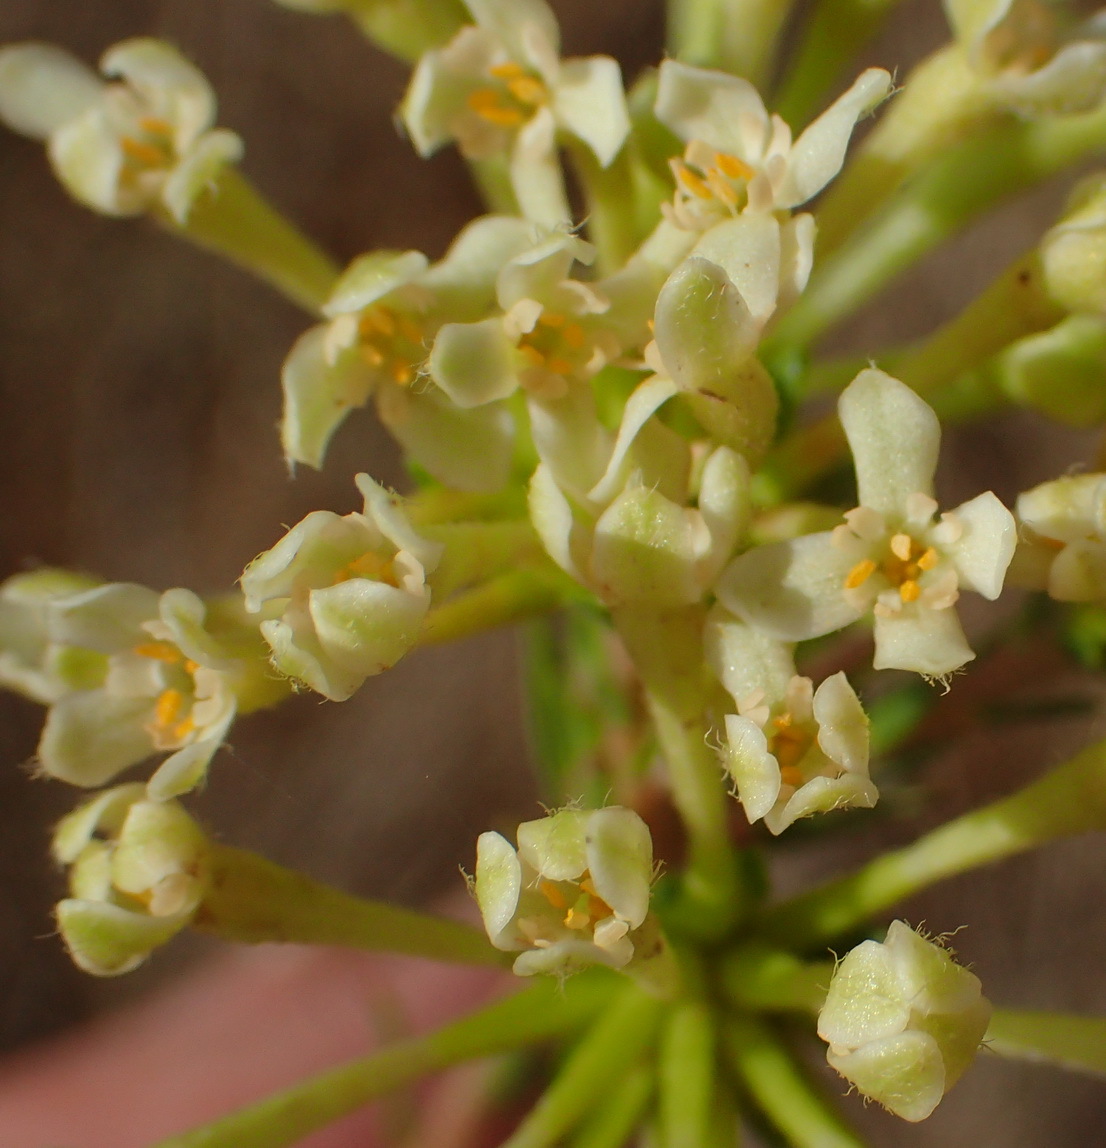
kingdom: Plantae
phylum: Tracheophyta
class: Magnoliopsida
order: Malvales
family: Thymelaeaceae
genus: Gnidia
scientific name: Gnidia squarrosa
